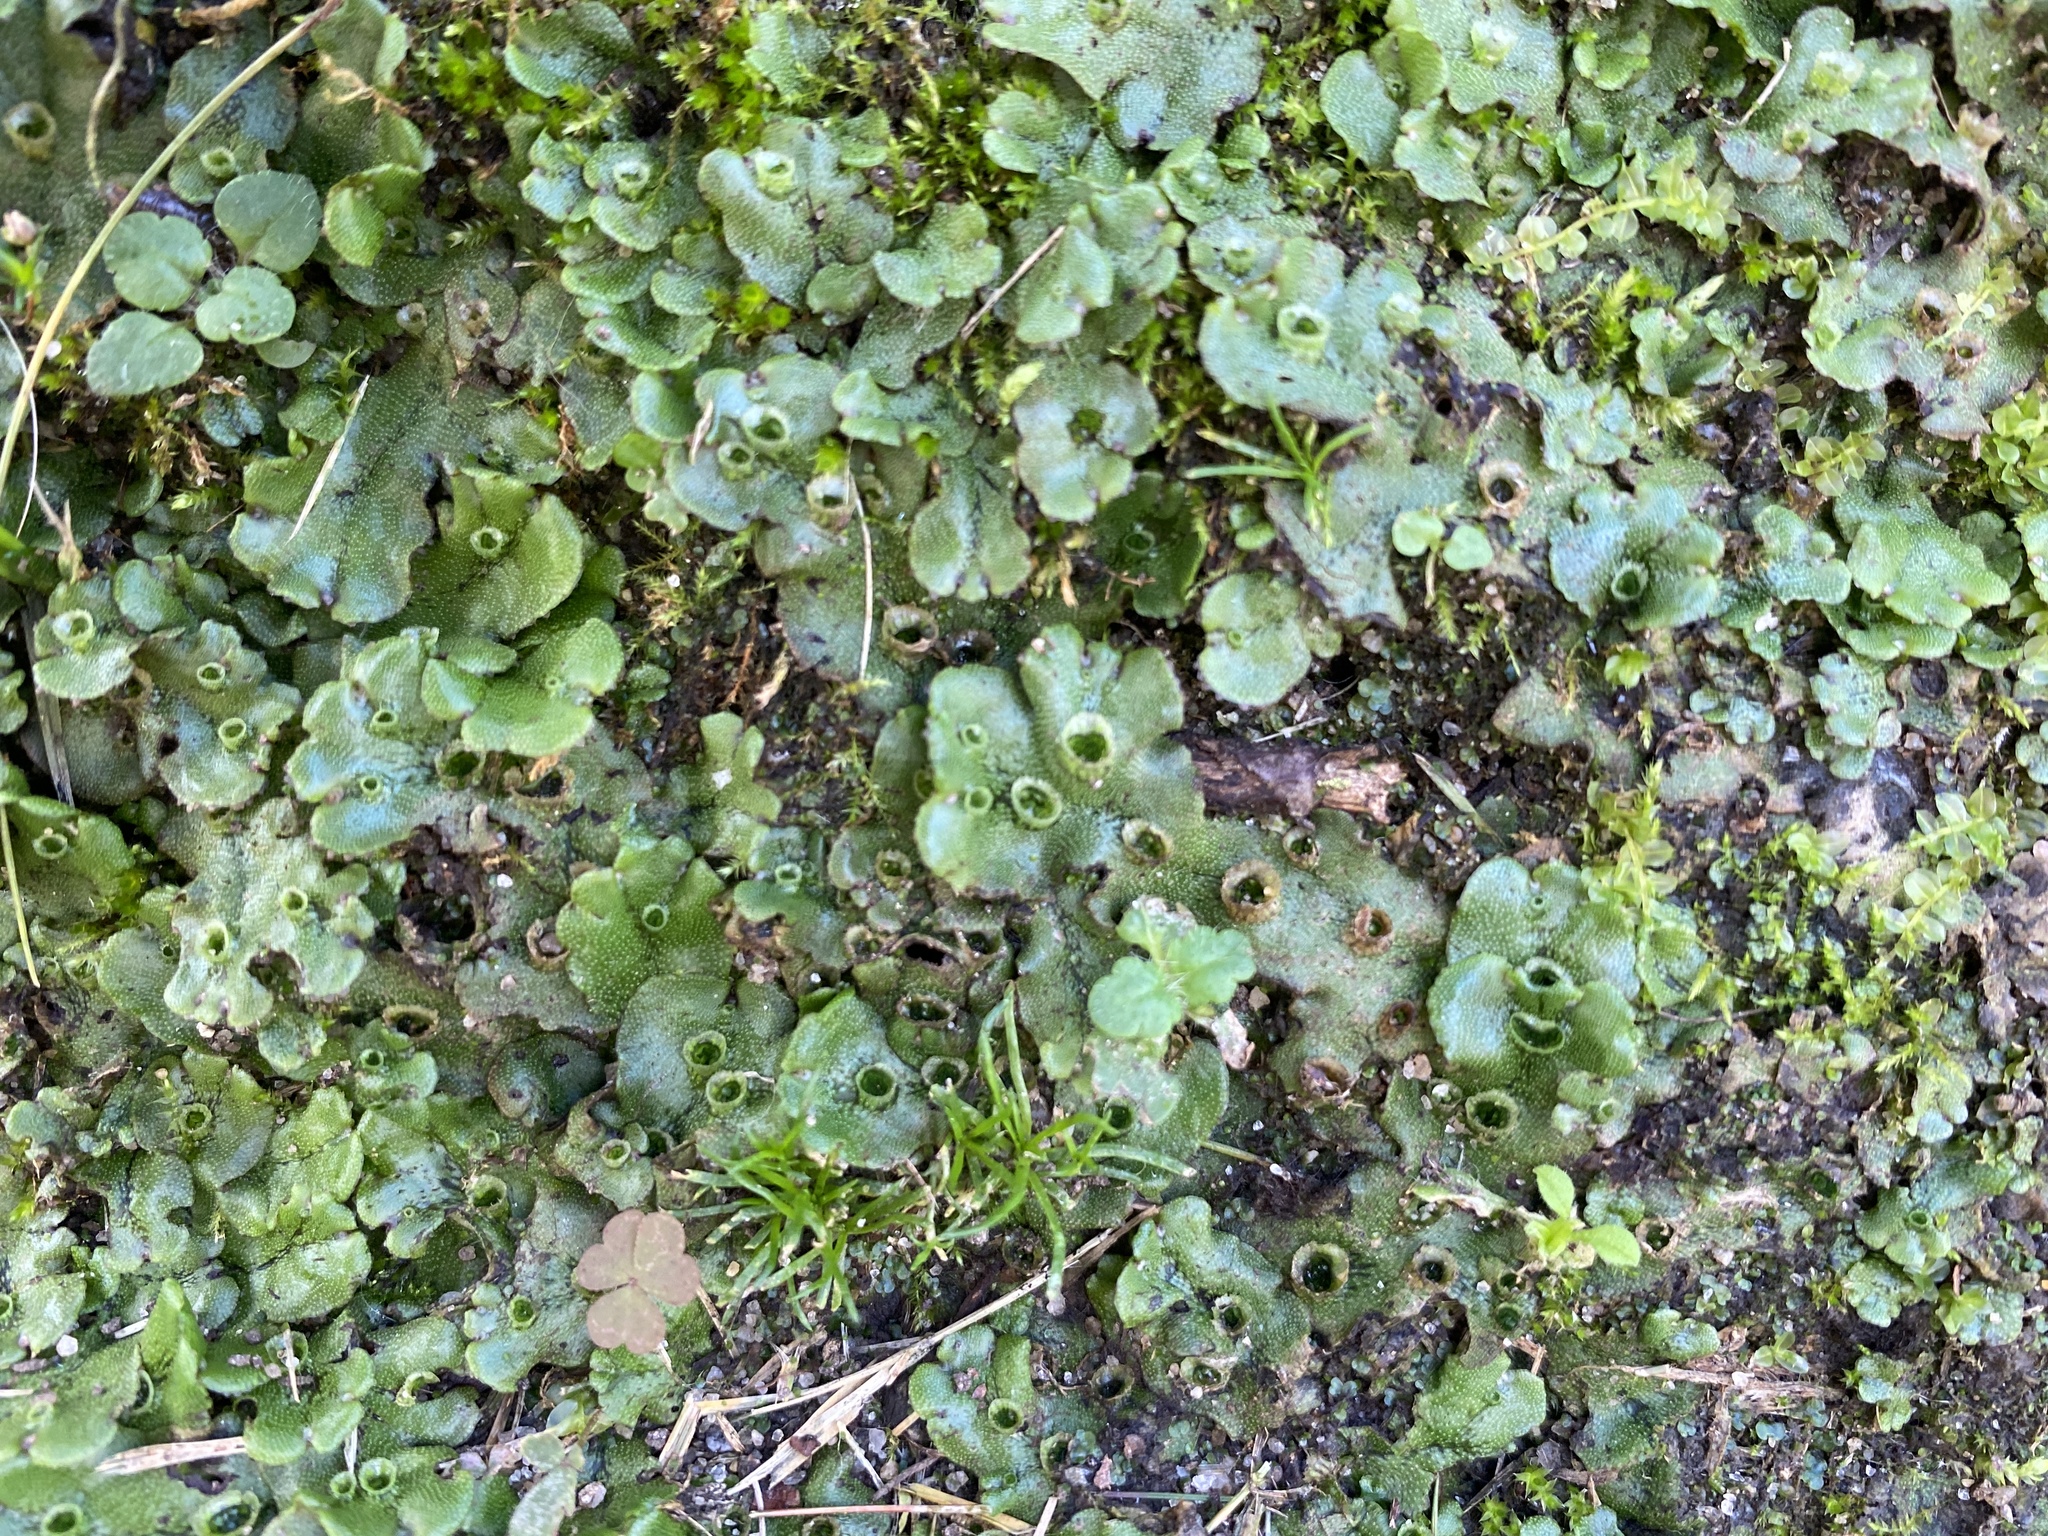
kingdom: Plantae
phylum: Marchantiophyta
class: Marchantiopsida
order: Marchantiales
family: Marchantiaceae
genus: Marchantia
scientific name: Marchantia polymorpha
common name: Common liverwort
